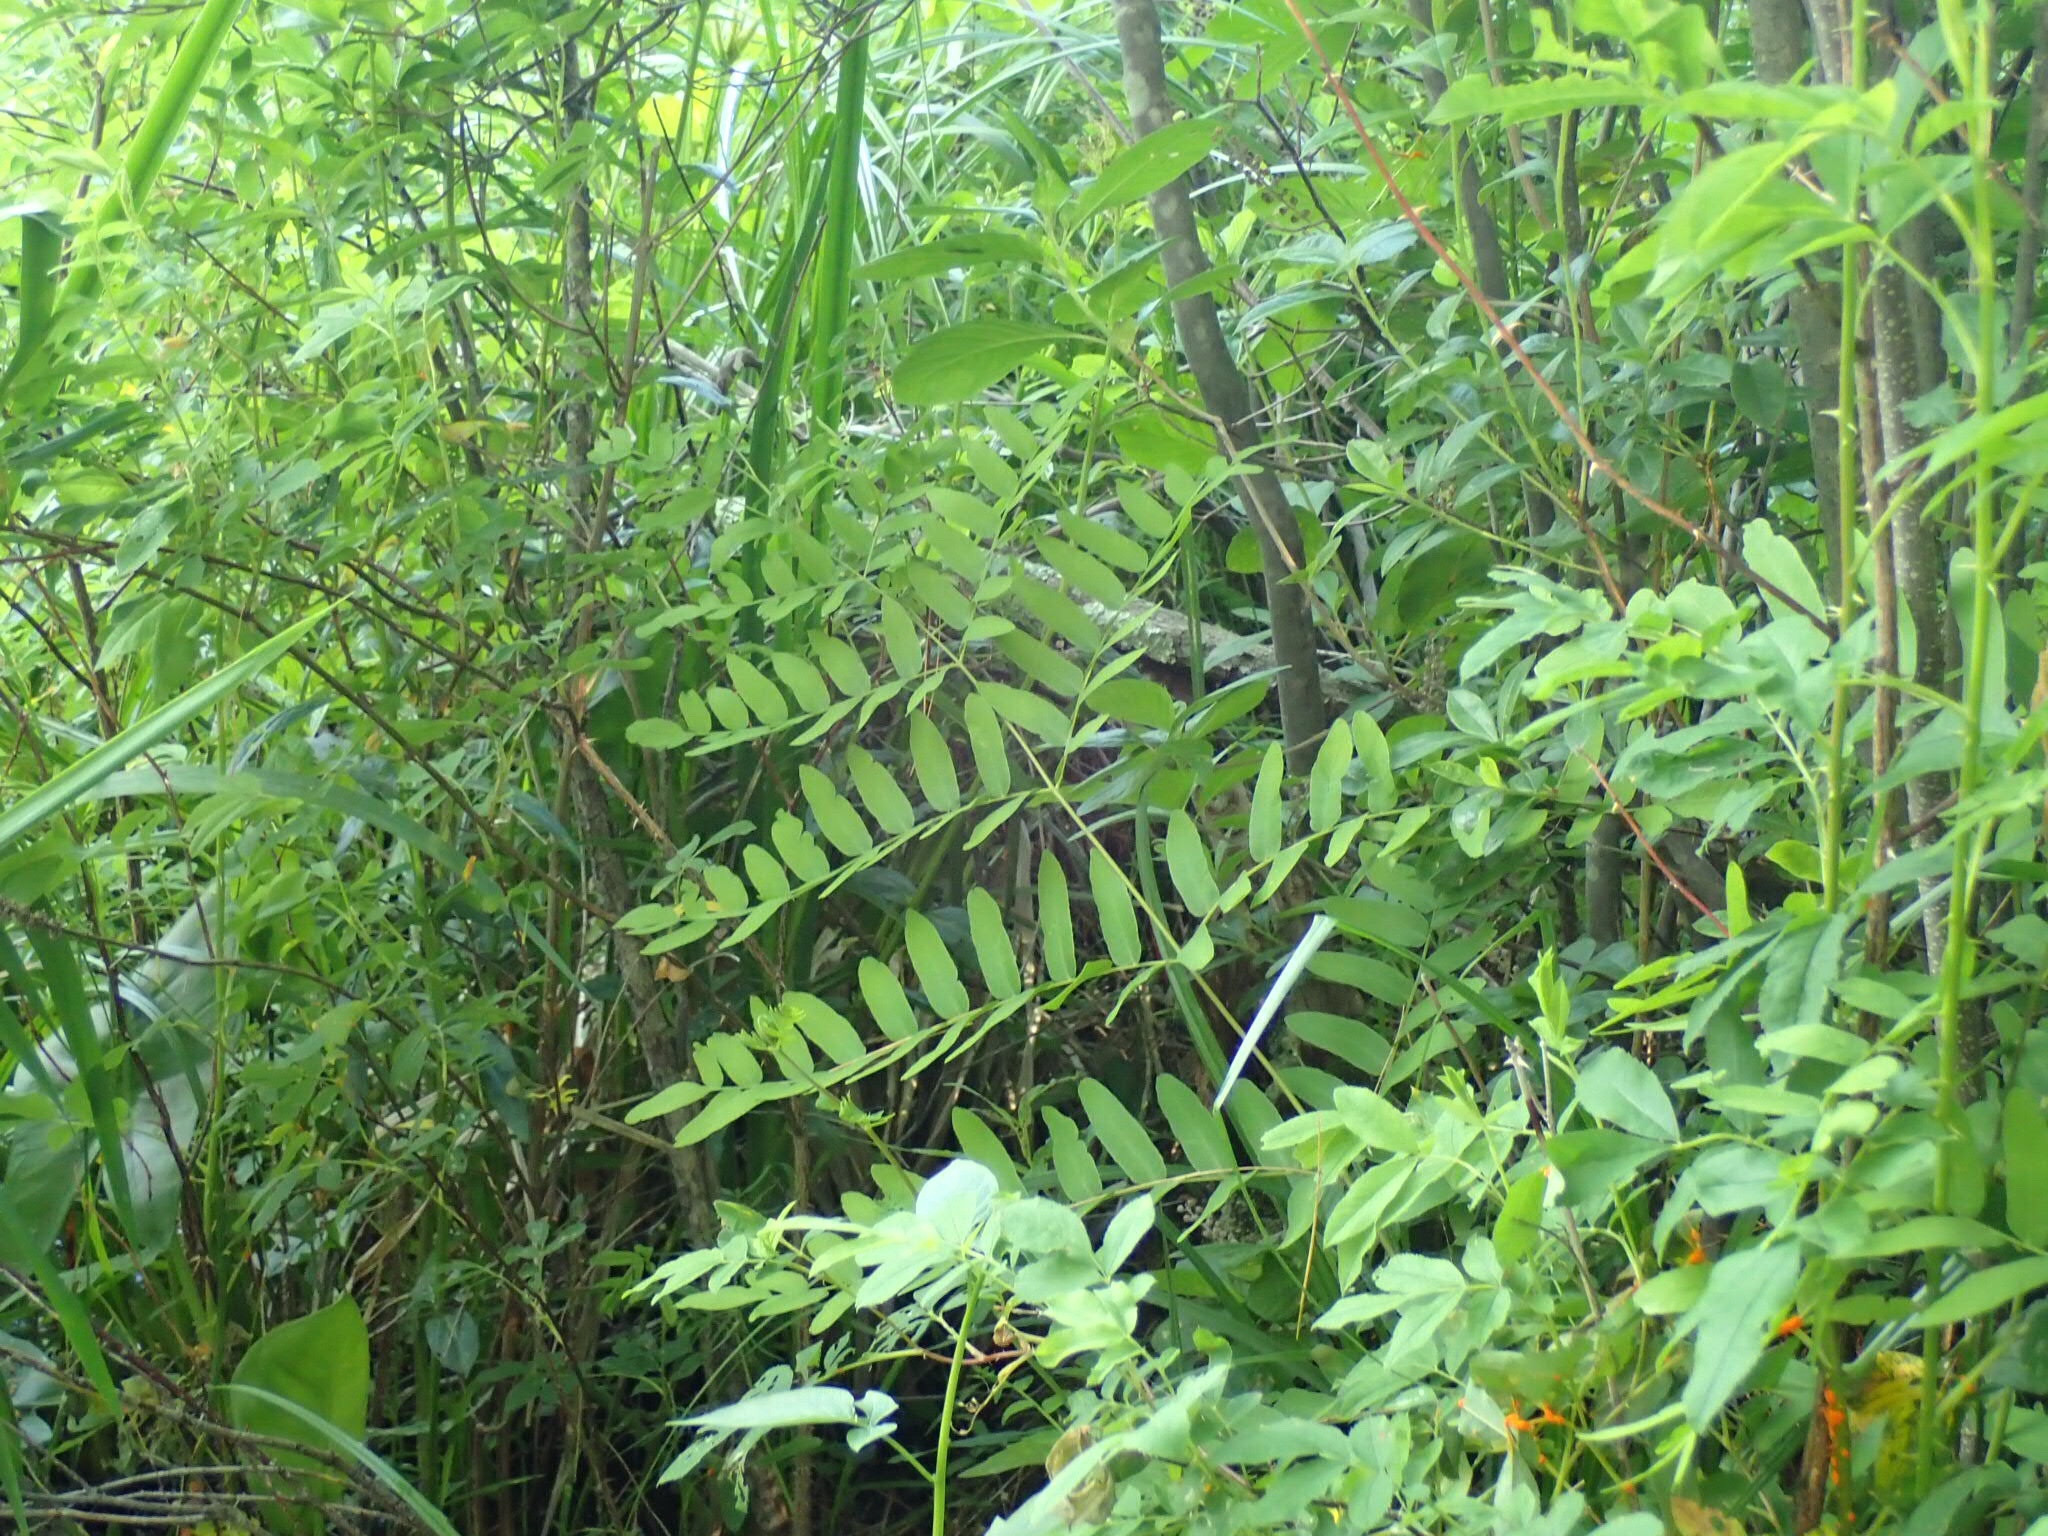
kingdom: Plantae
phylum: Tracheophyta
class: Polypodiopsida
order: Osmundales
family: Osmundaceae
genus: Osmunda
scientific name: Osmunda spectabilis
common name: American royal fern
